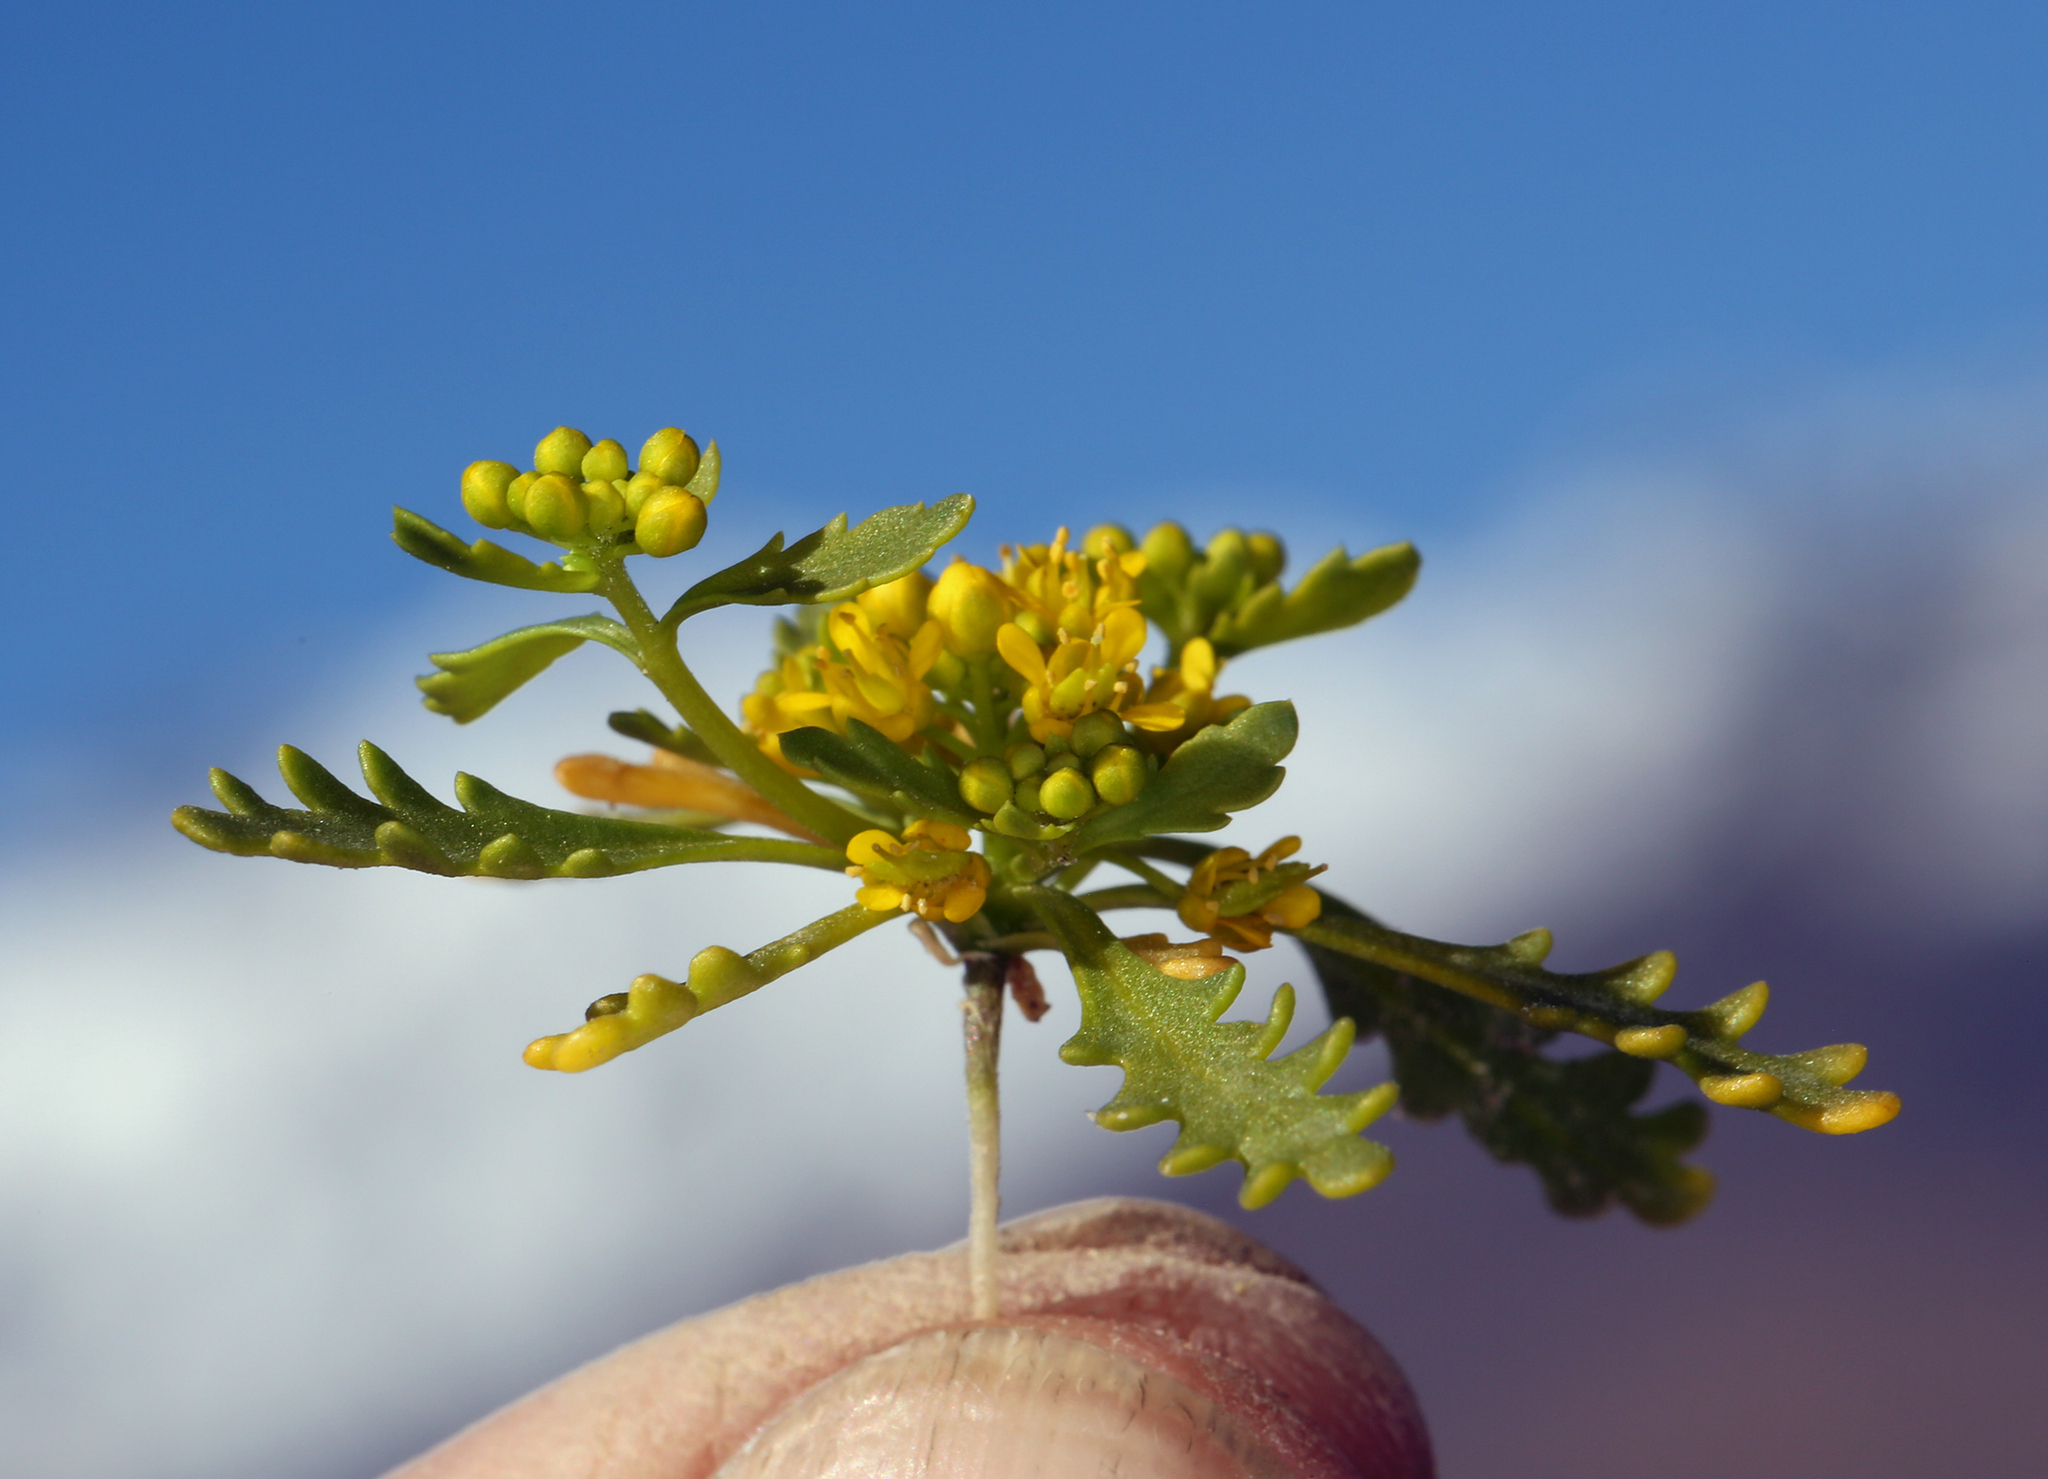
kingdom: Plantae
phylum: Tracheophyta
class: Magnoliopsida
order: Brassicales
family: Brassicaceae
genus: Lepidium
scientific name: Lepidium flavum
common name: Yellow pepperwort
